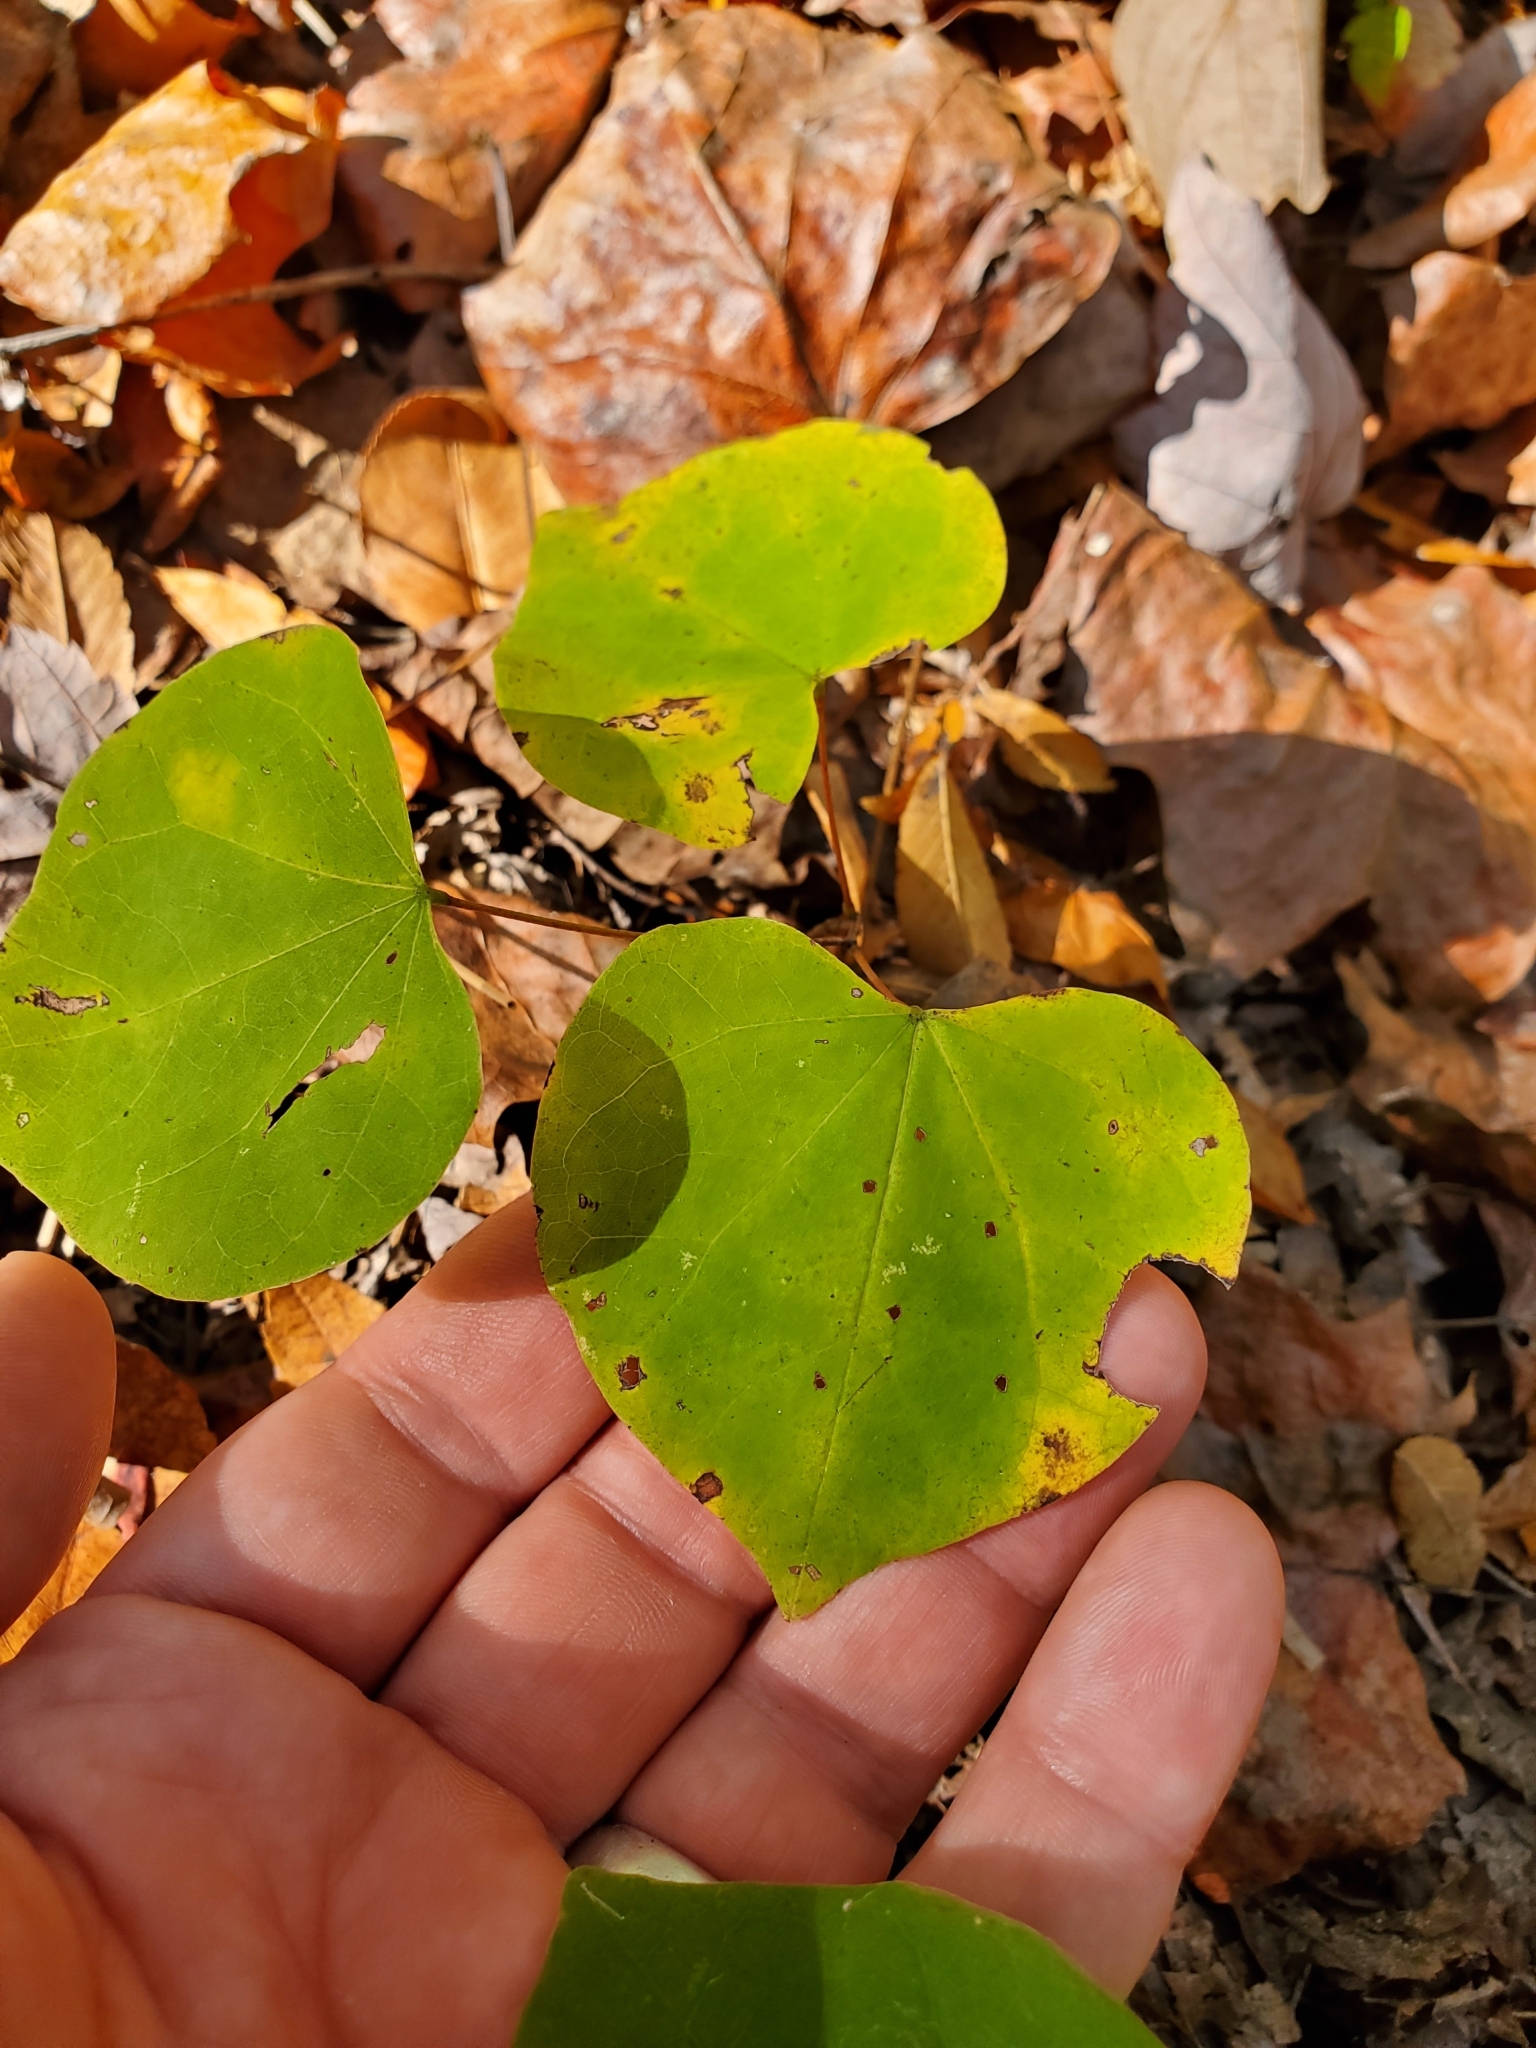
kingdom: Plantae
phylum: Tracheophyta
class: Magnoliopsida
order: Fabales
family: Fabaceae
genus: Cercis
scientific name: Cercis canadensis
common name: Eastern redbud
